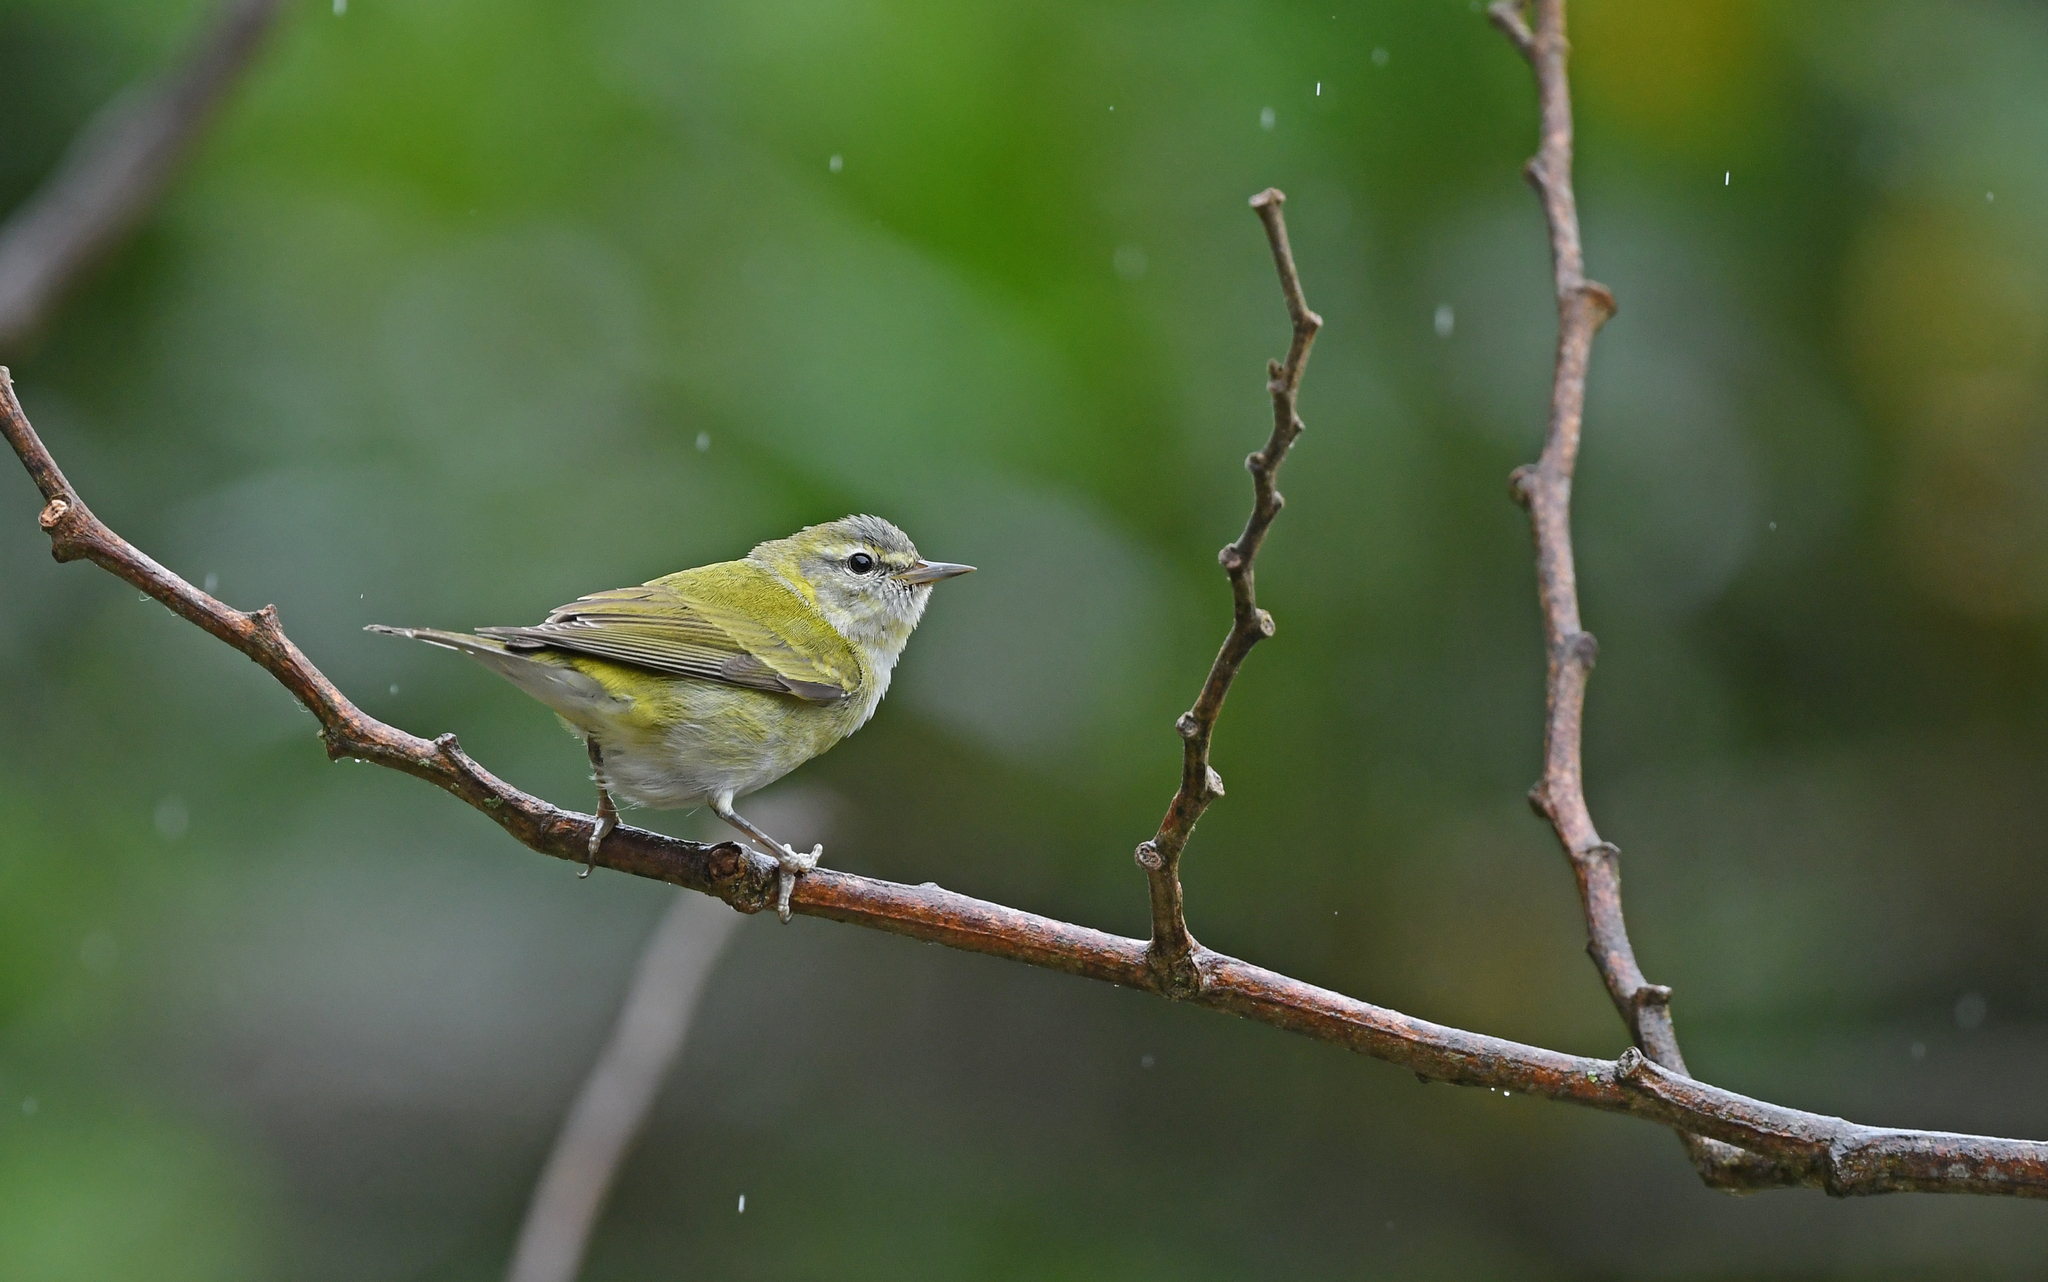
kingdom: Animalia
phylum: Chordata
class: Aves
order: Passeriformes
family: Parulidae
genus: Leiothlypis
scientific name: Leiothlypis peregrina
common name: Tennessee warbler
